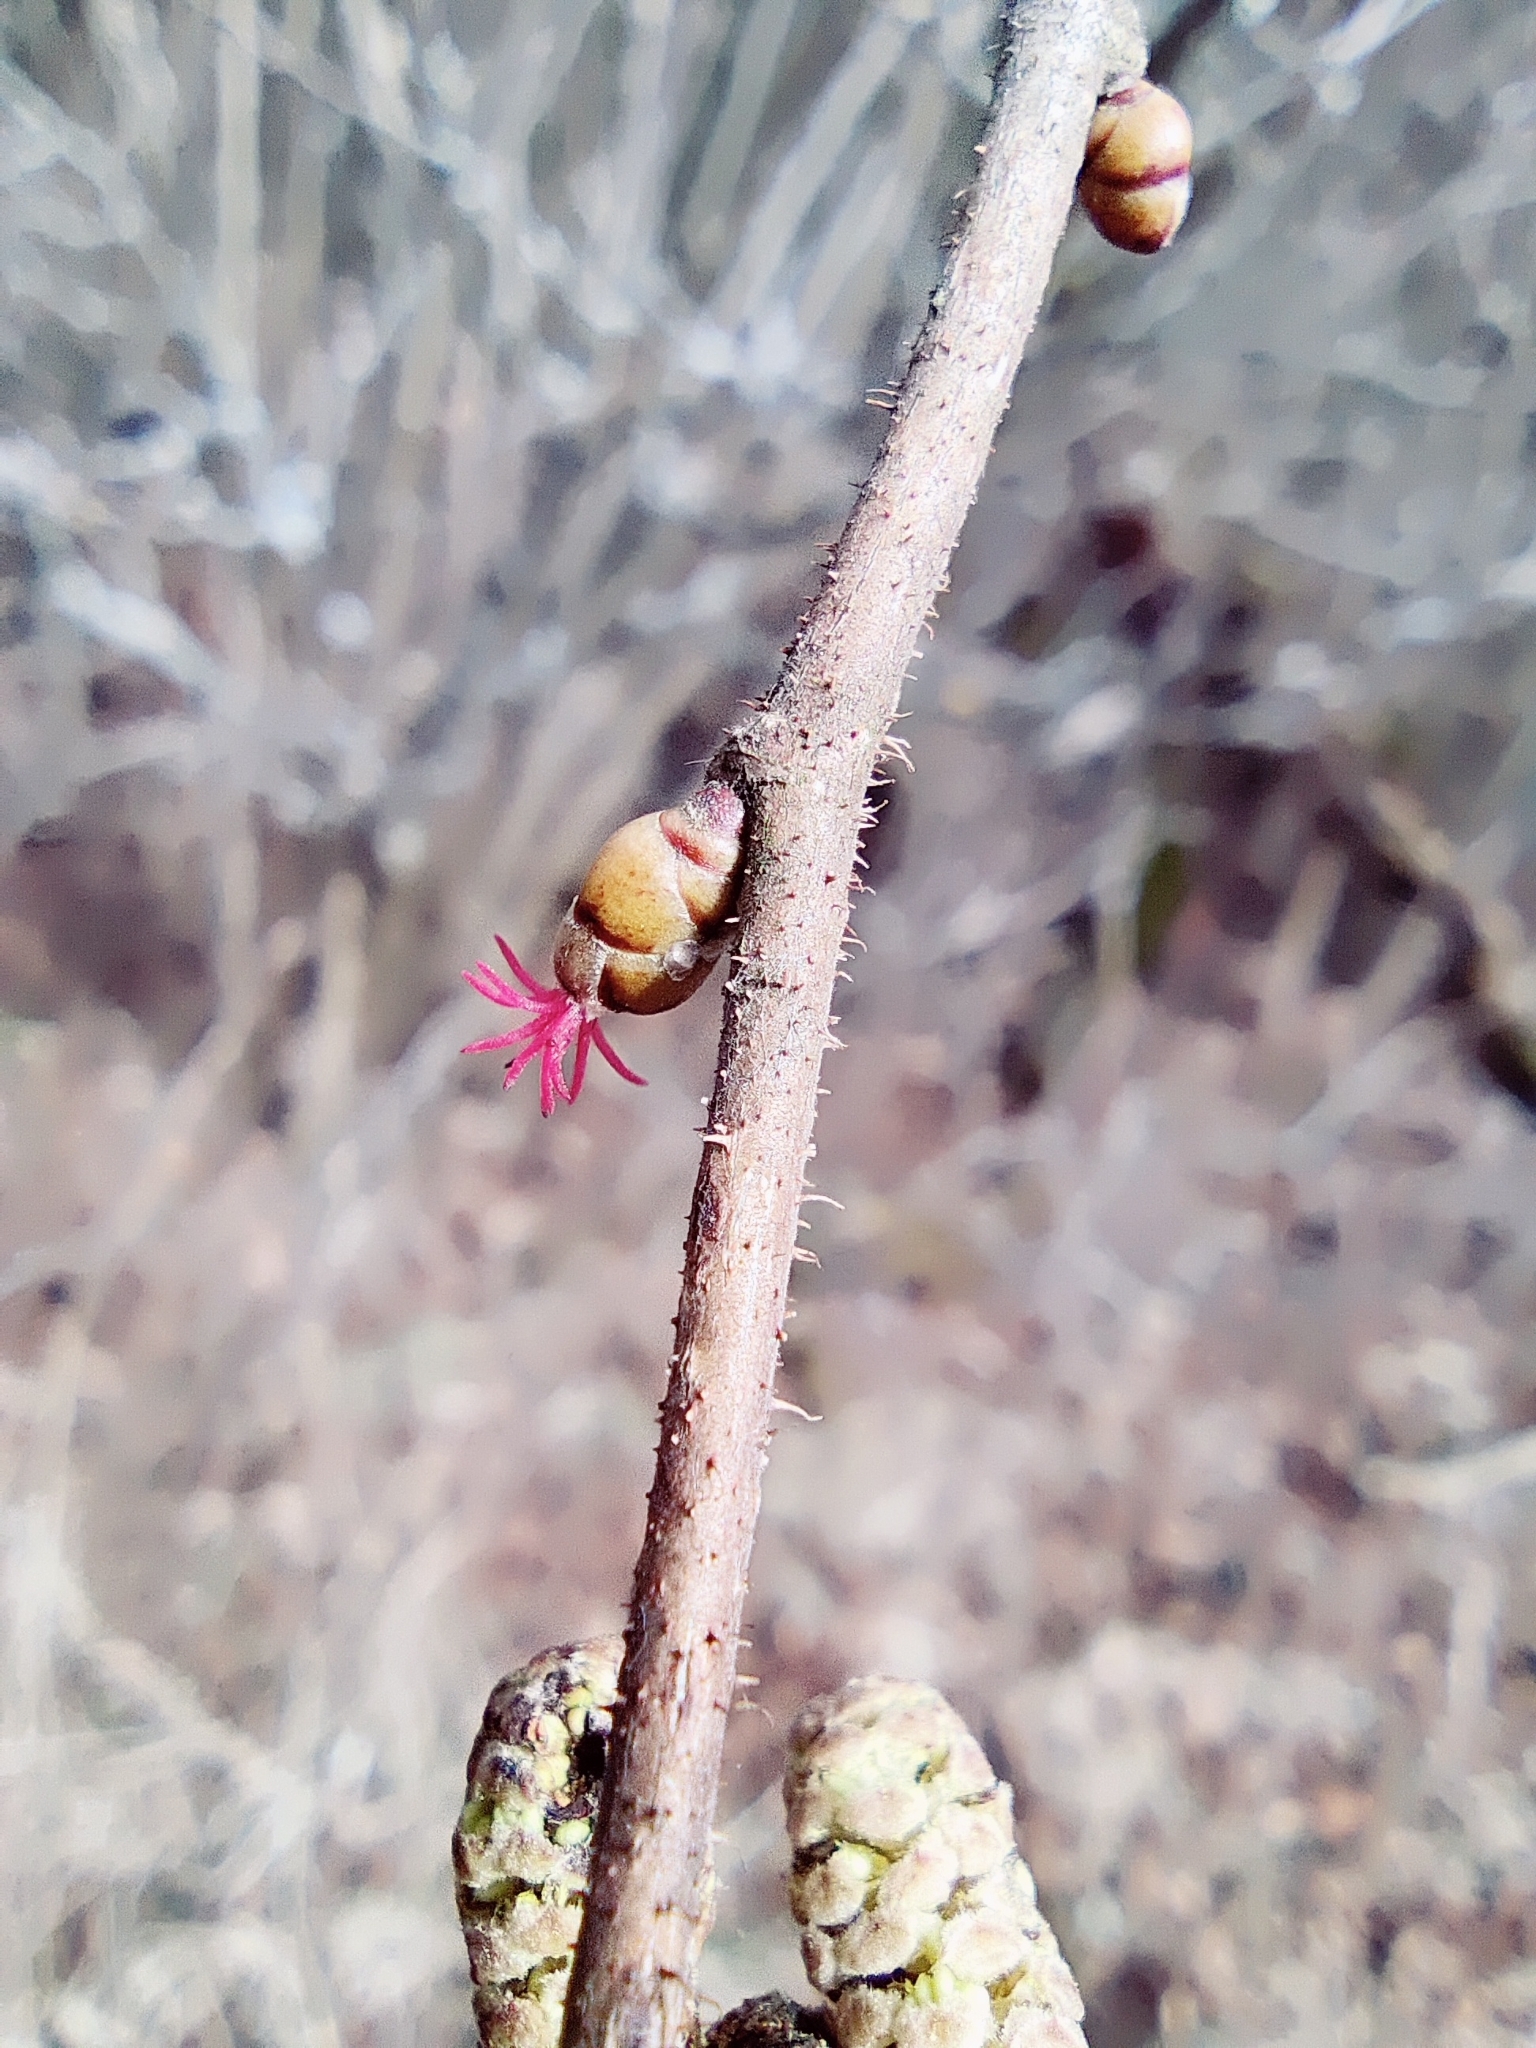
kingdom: Plantae
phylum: Tracheophyta
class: Magnoliopsida
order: Fagales
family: Betulaceae
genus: Corylus
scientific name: Corylus avellana
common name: European hazel
